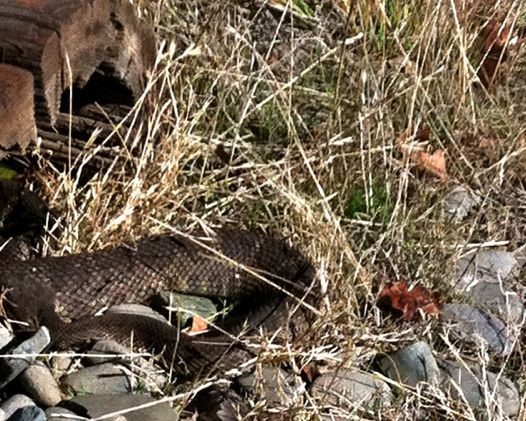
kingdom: Animalia
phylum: Chordata
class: Squamata
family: Viperidae
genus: Crotalus
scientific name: Crotalus oreganus
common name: Abyssus
